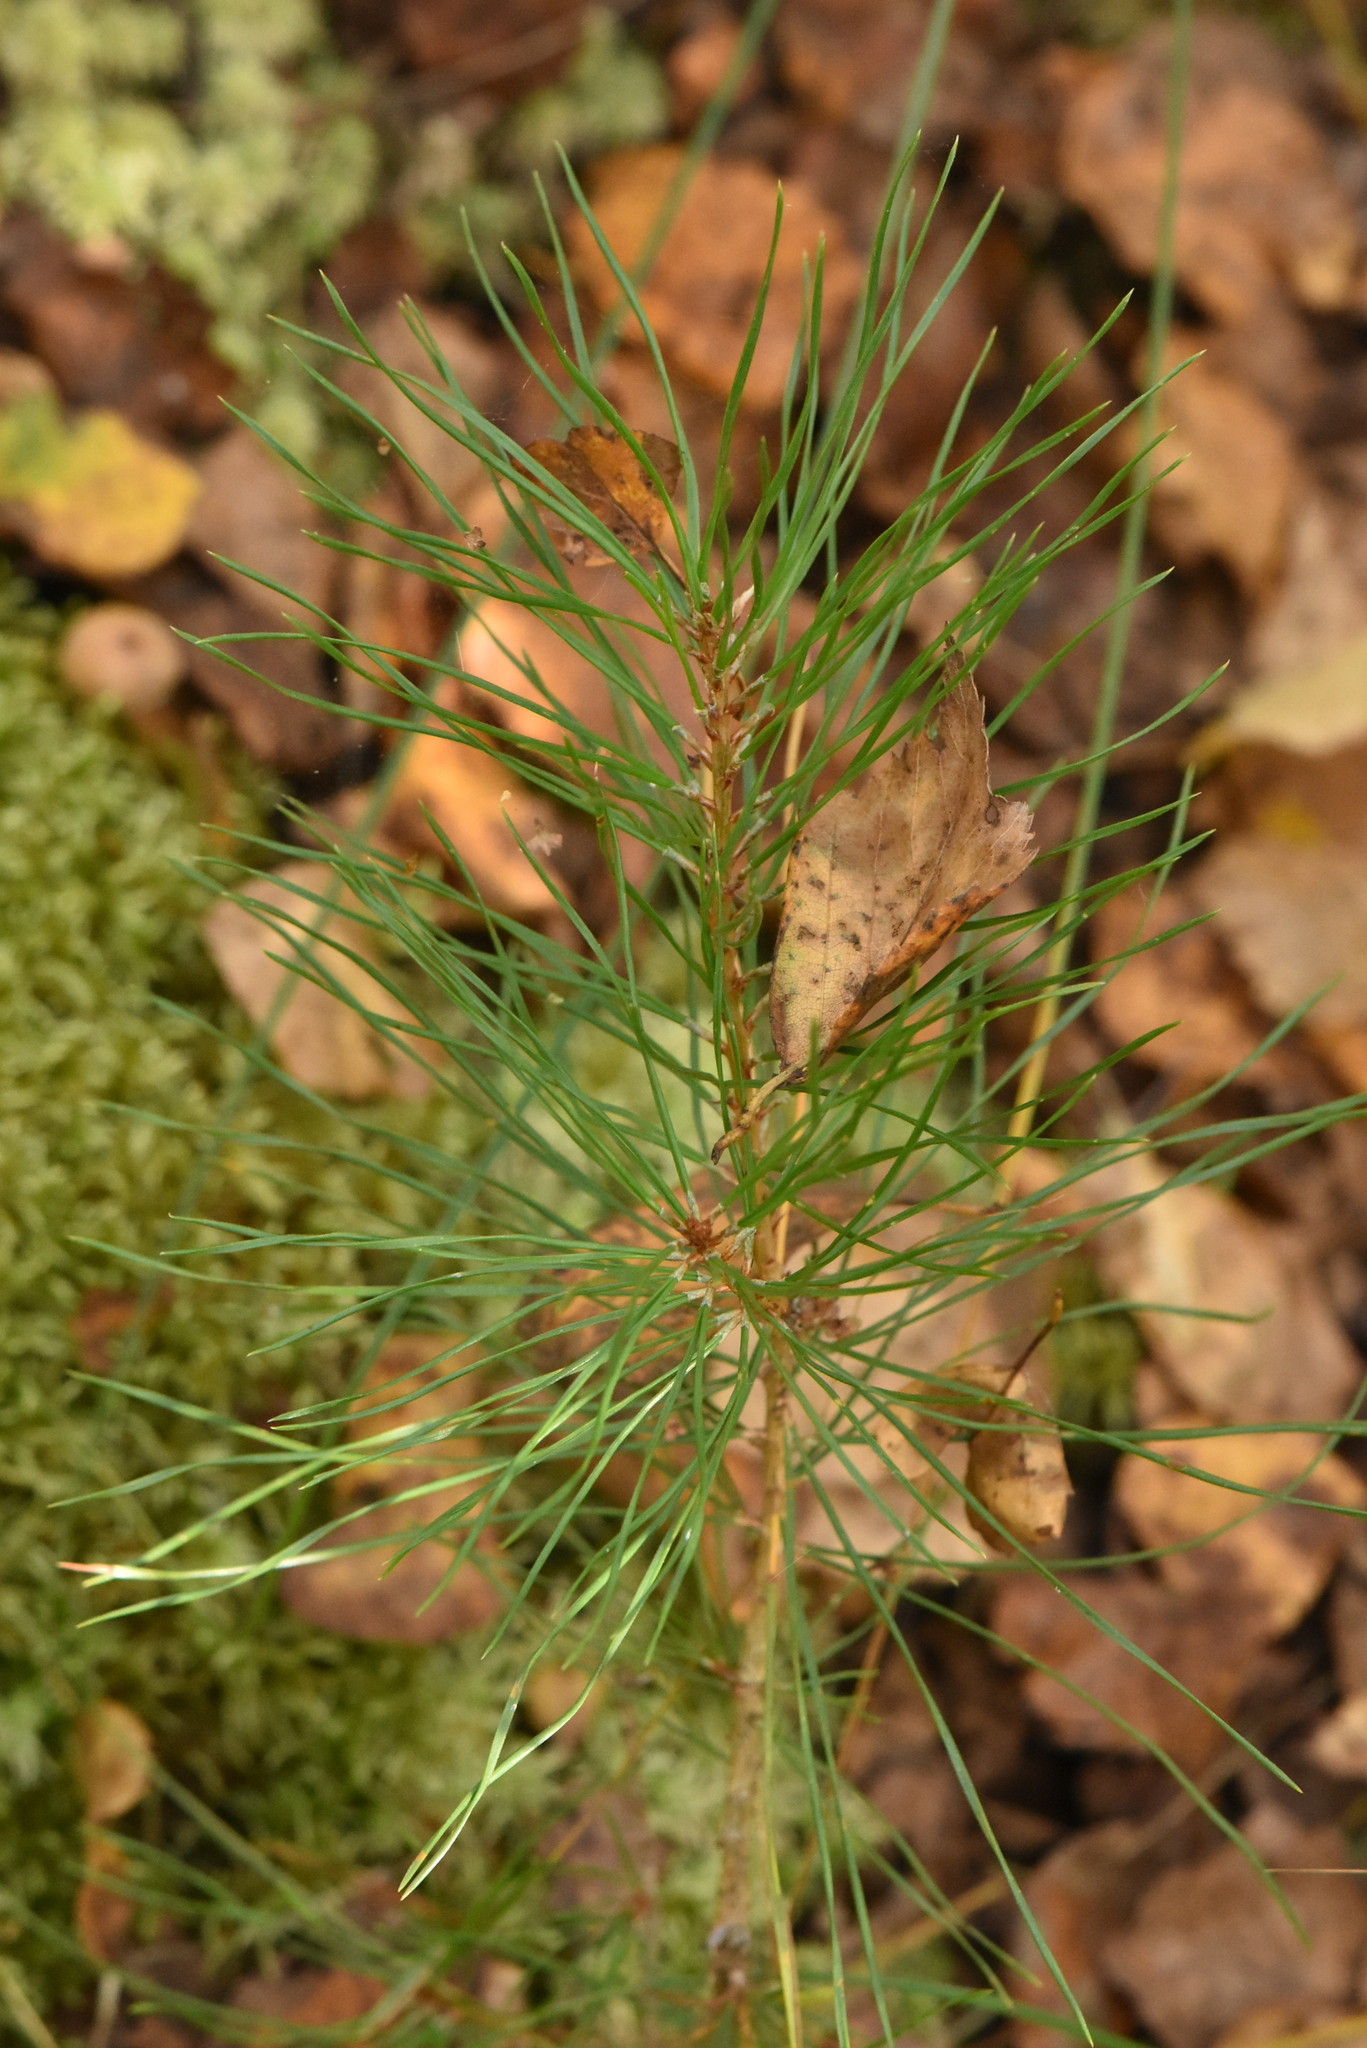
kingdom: Plantae
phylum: Tracheophyta
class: Pinopsida
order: Pinales
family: Pinaceae
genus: Pinus
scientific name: Pinus sylvestris
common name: Scots pine
